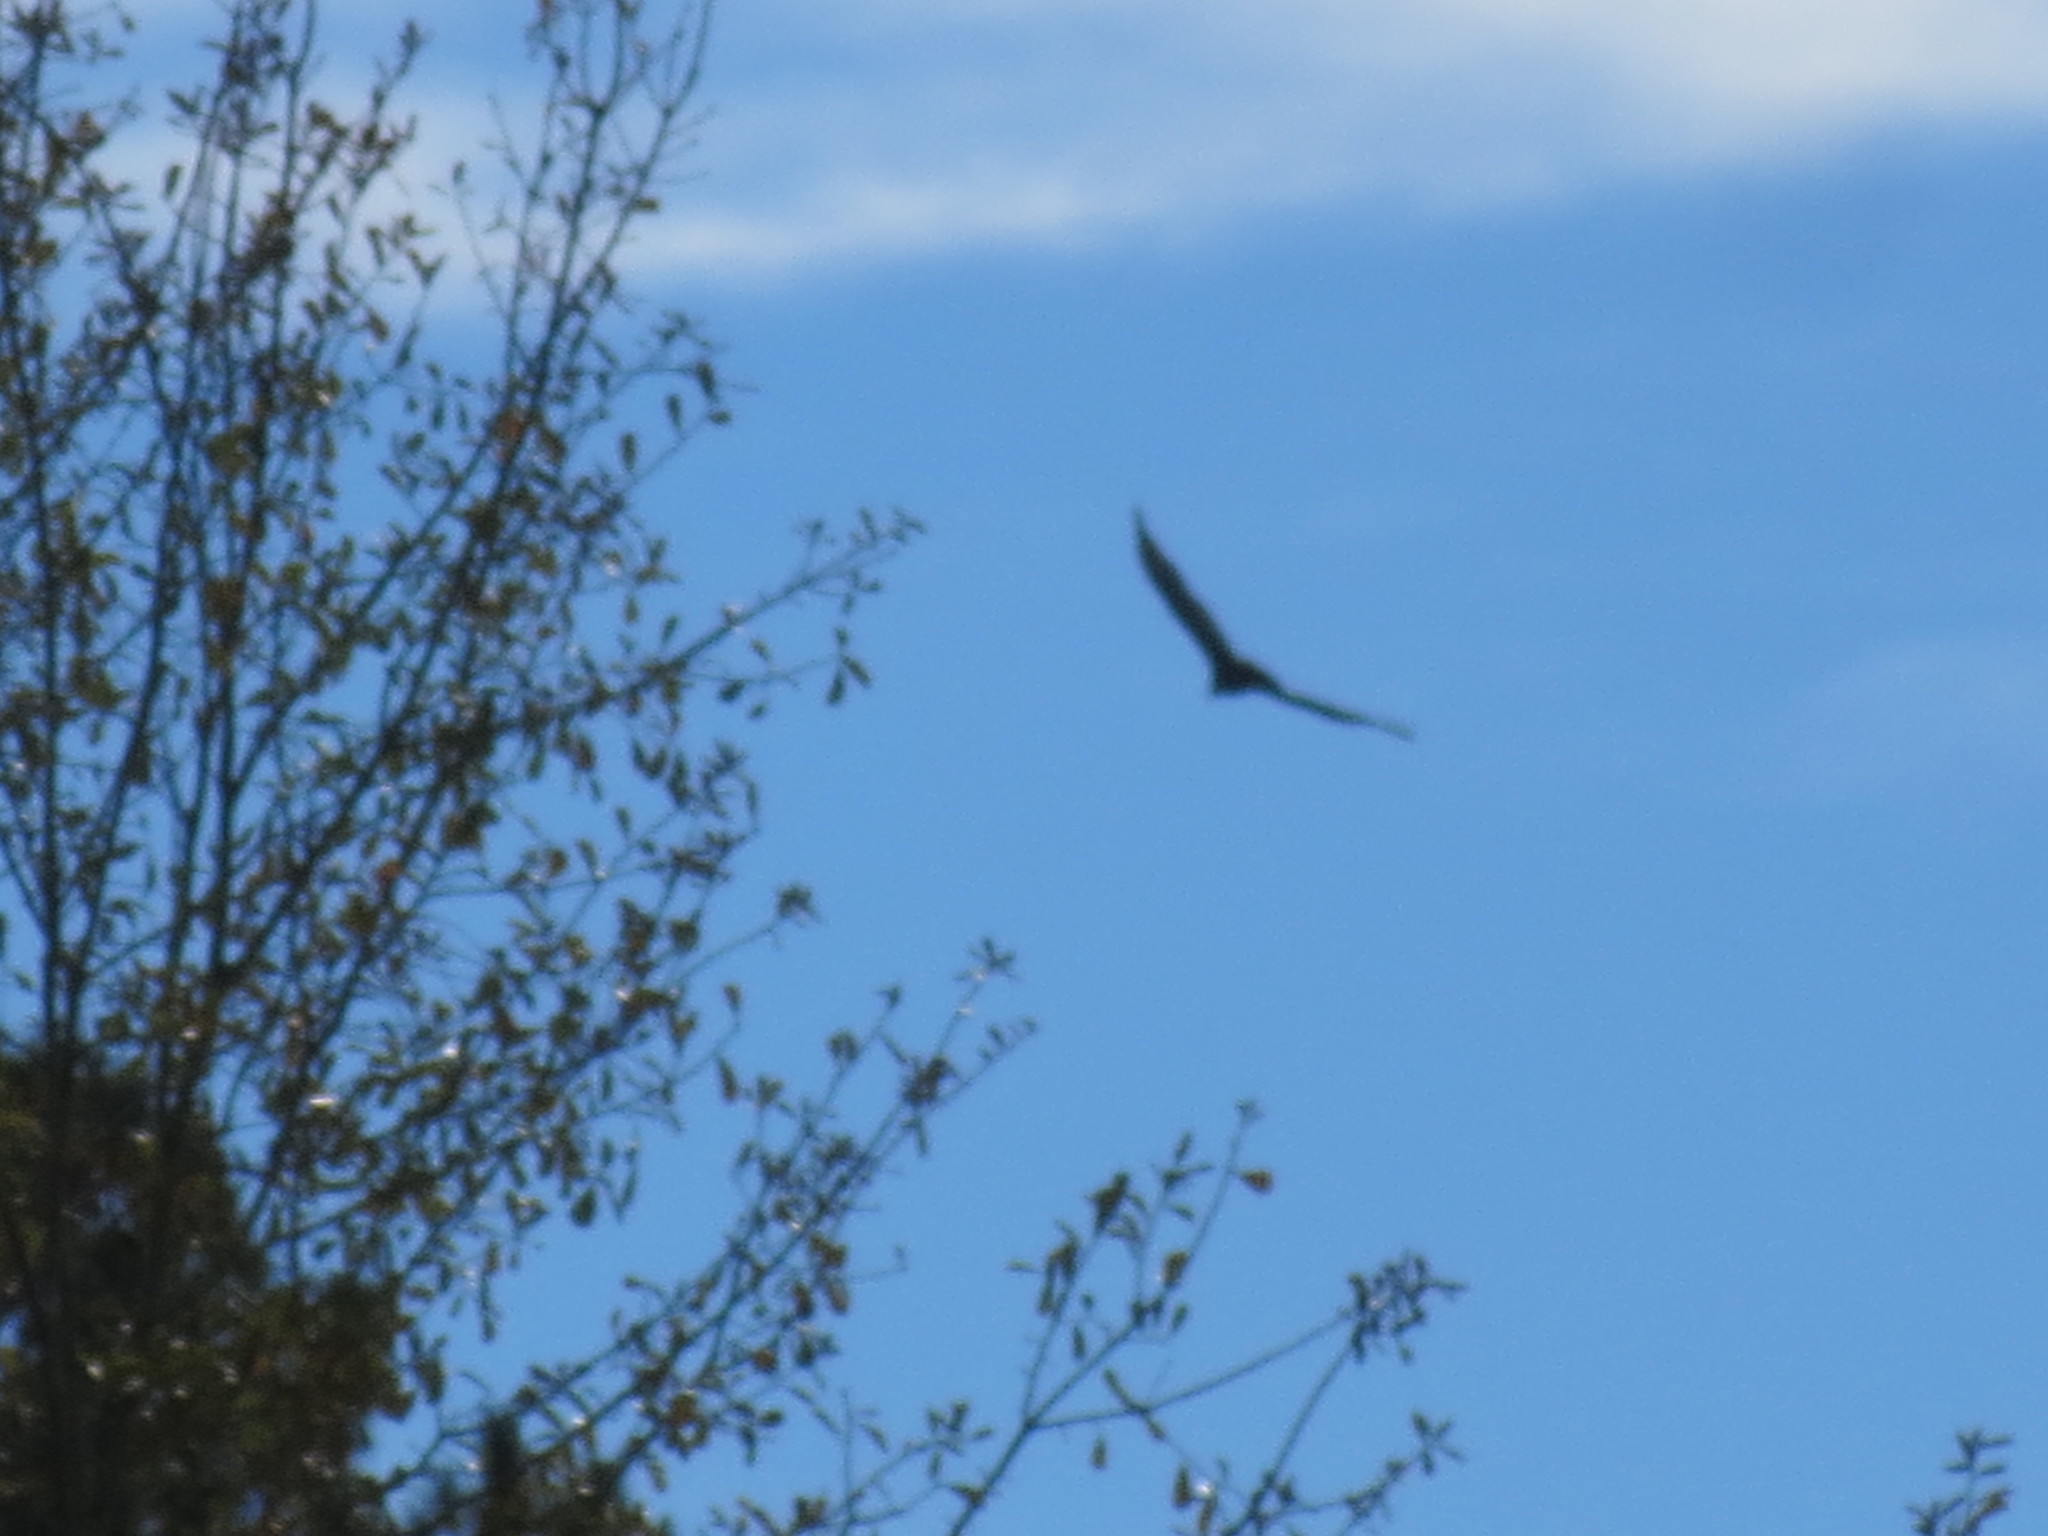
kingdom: Animalia
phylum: Chordata
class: Aves
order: Accipitriformes
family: Cathartidae
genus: Coragyps
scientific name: Coragyps atratus
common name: Black vulture
